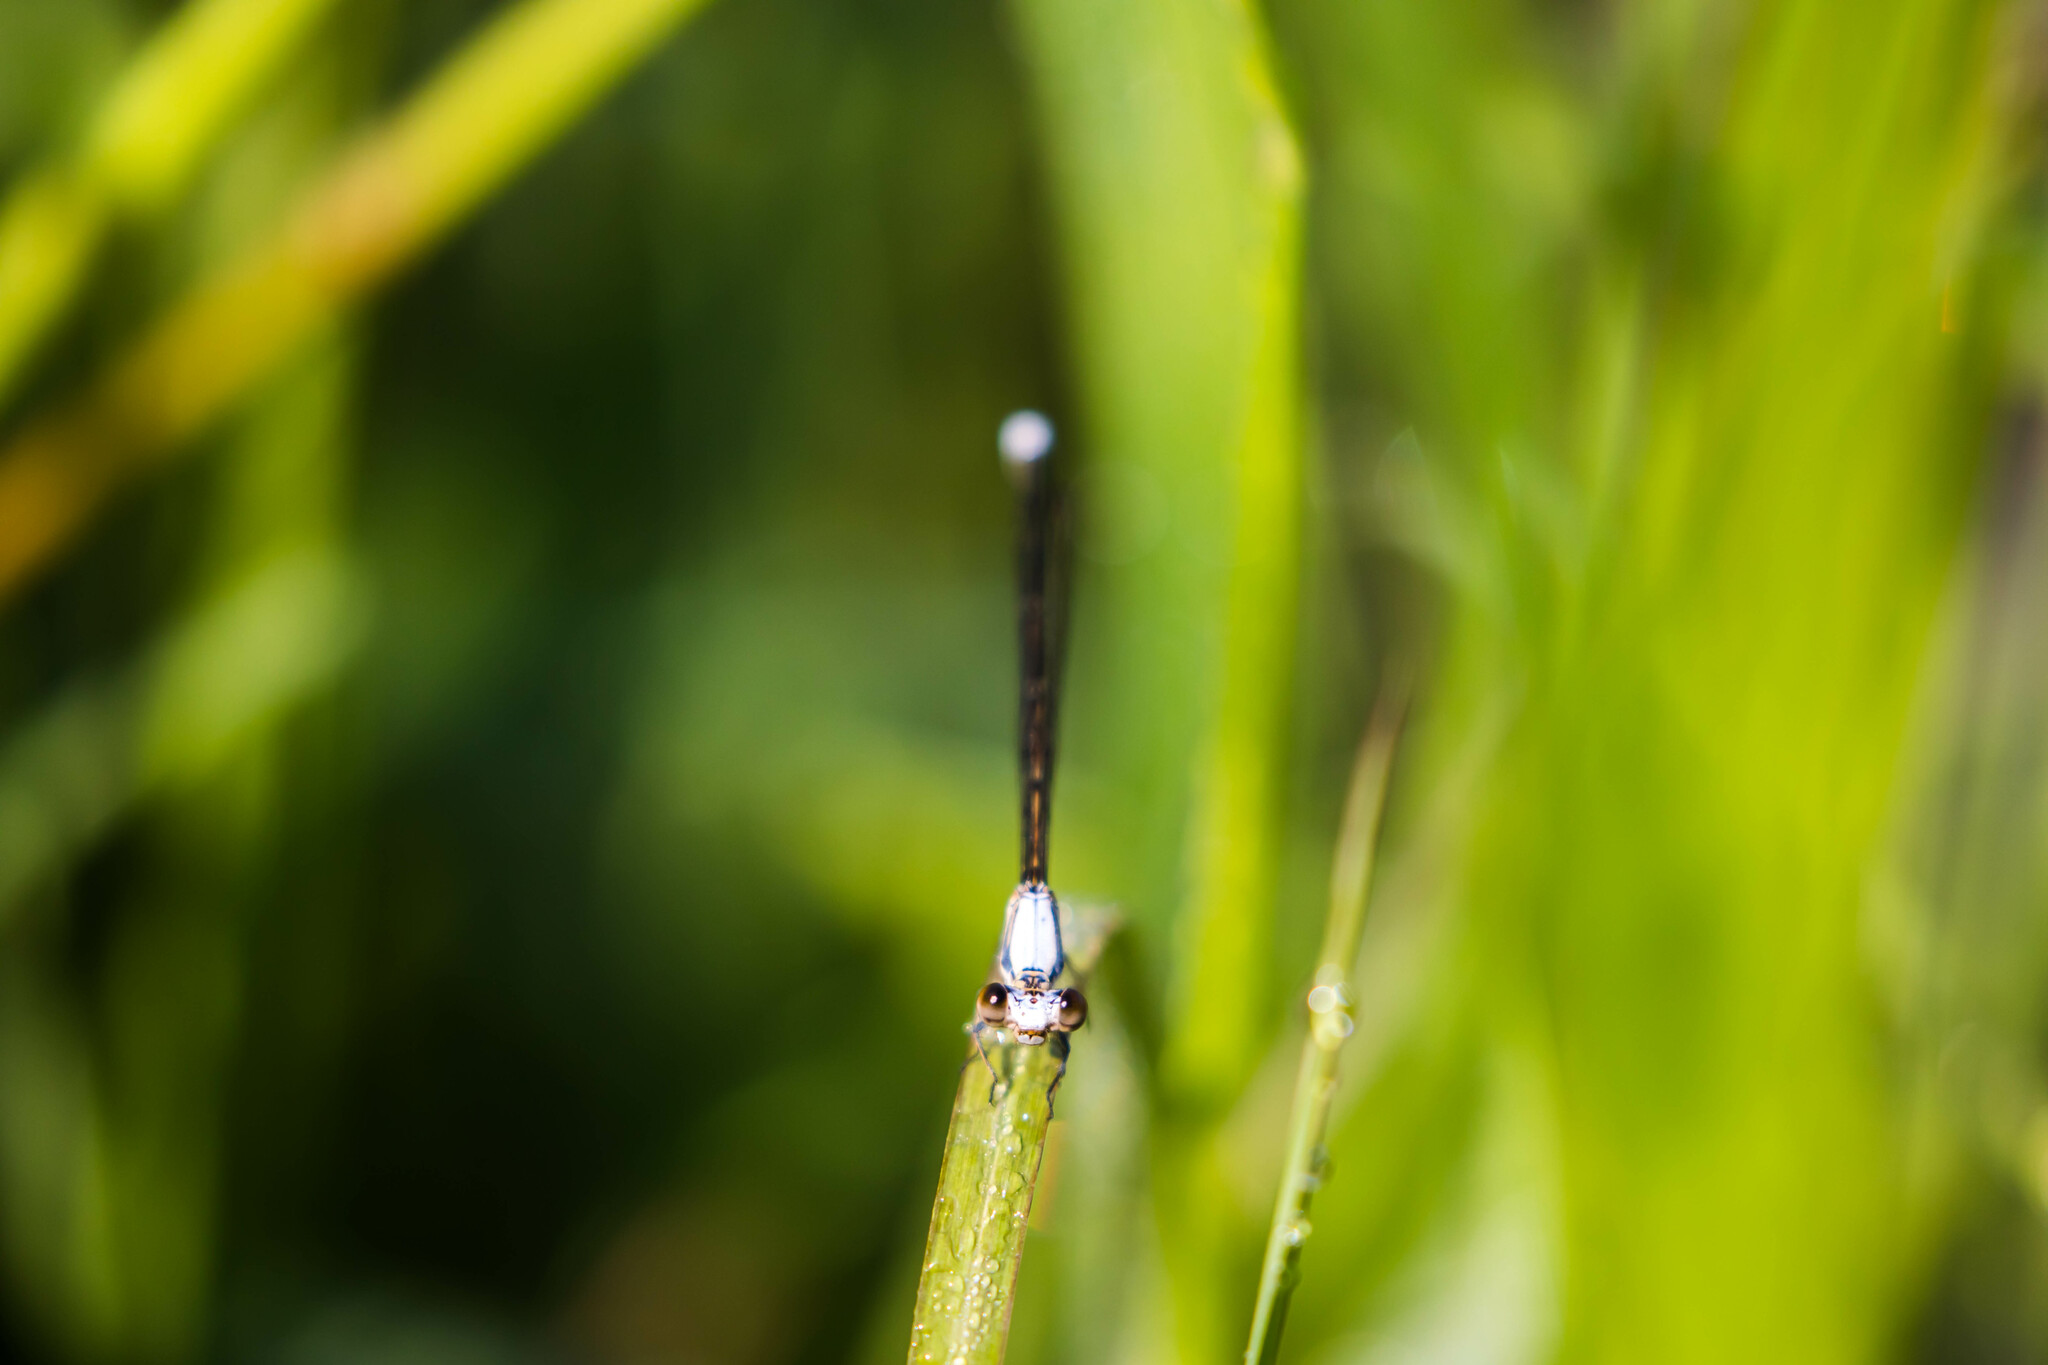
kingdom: Animalia
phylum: Arthropoda
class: Insecta
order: Odonata
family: Coenagrionidae
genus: Argia
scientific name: Argia moesta
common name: Powdered dancer
